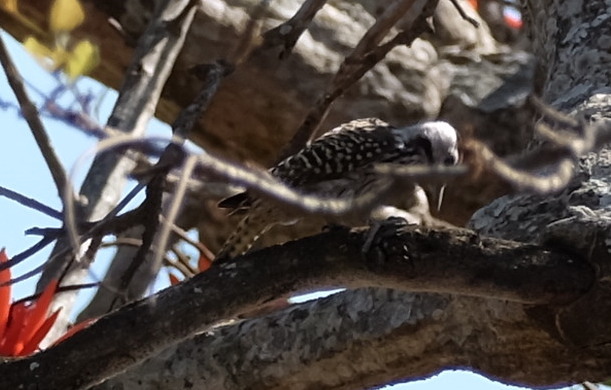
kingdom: Animalia
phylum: Chordata
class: Aves
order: Piciformes
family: Picidae
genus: Dendropicos
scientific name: Dendropicos fuscescens
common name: Cardinal woodpecker
